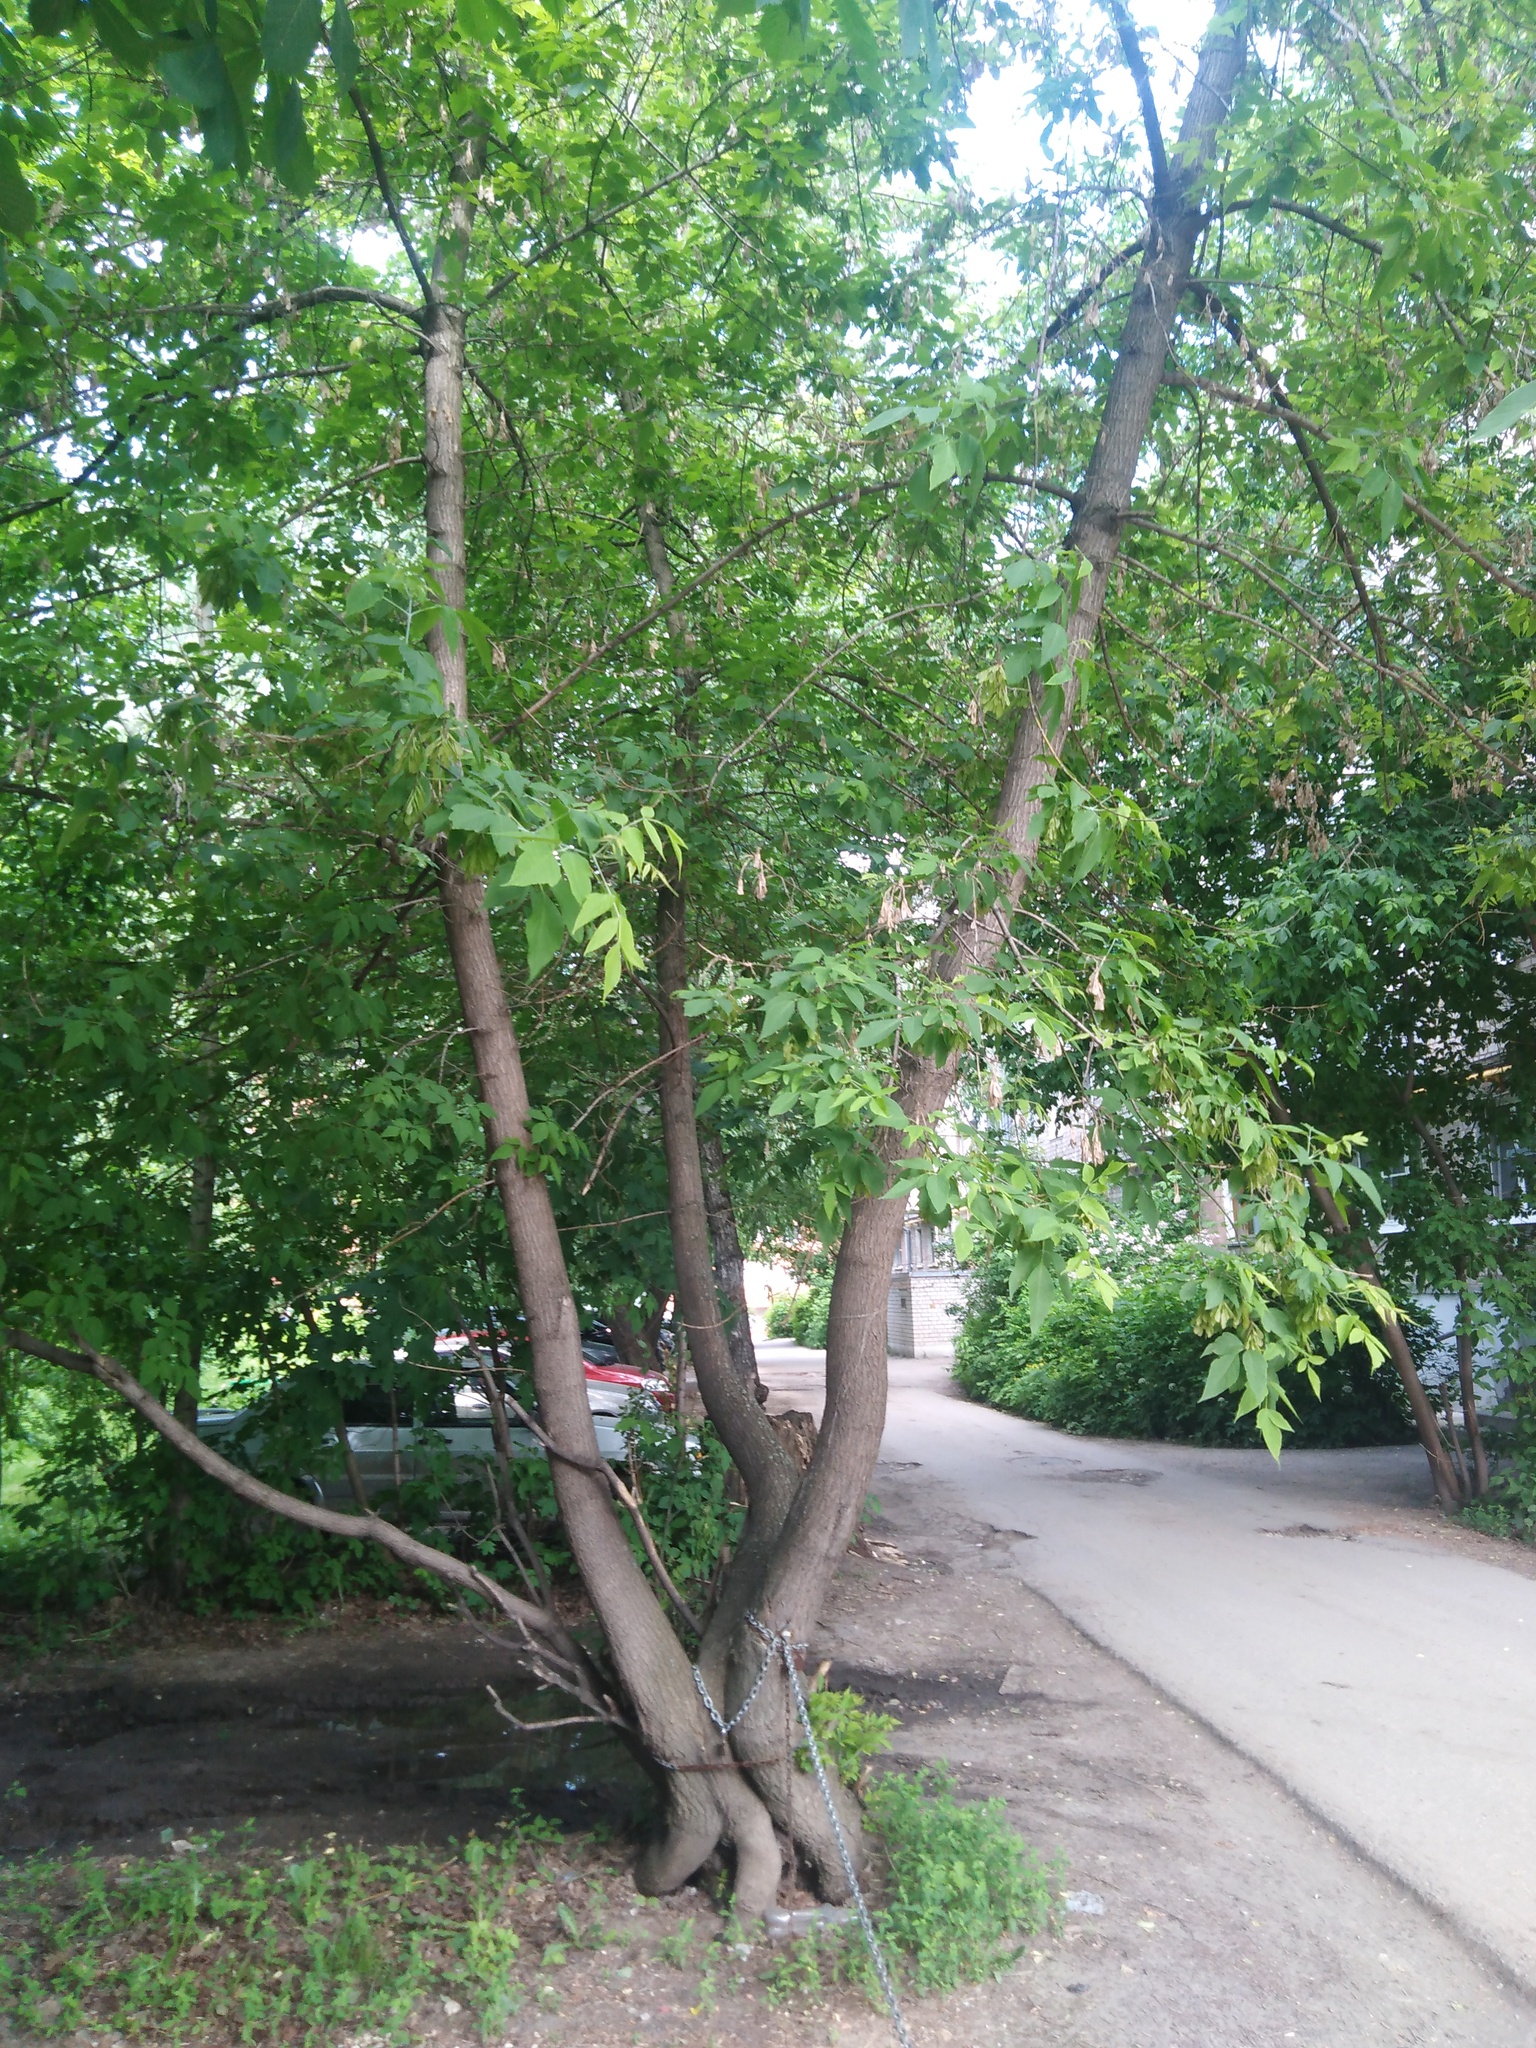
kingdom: Plantae
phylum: Tracheophyta
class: Magnoliopsida
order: Sapindales
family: Sapindaceae
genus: Acer
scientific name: Acer negundo
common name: Ashleaf maple
